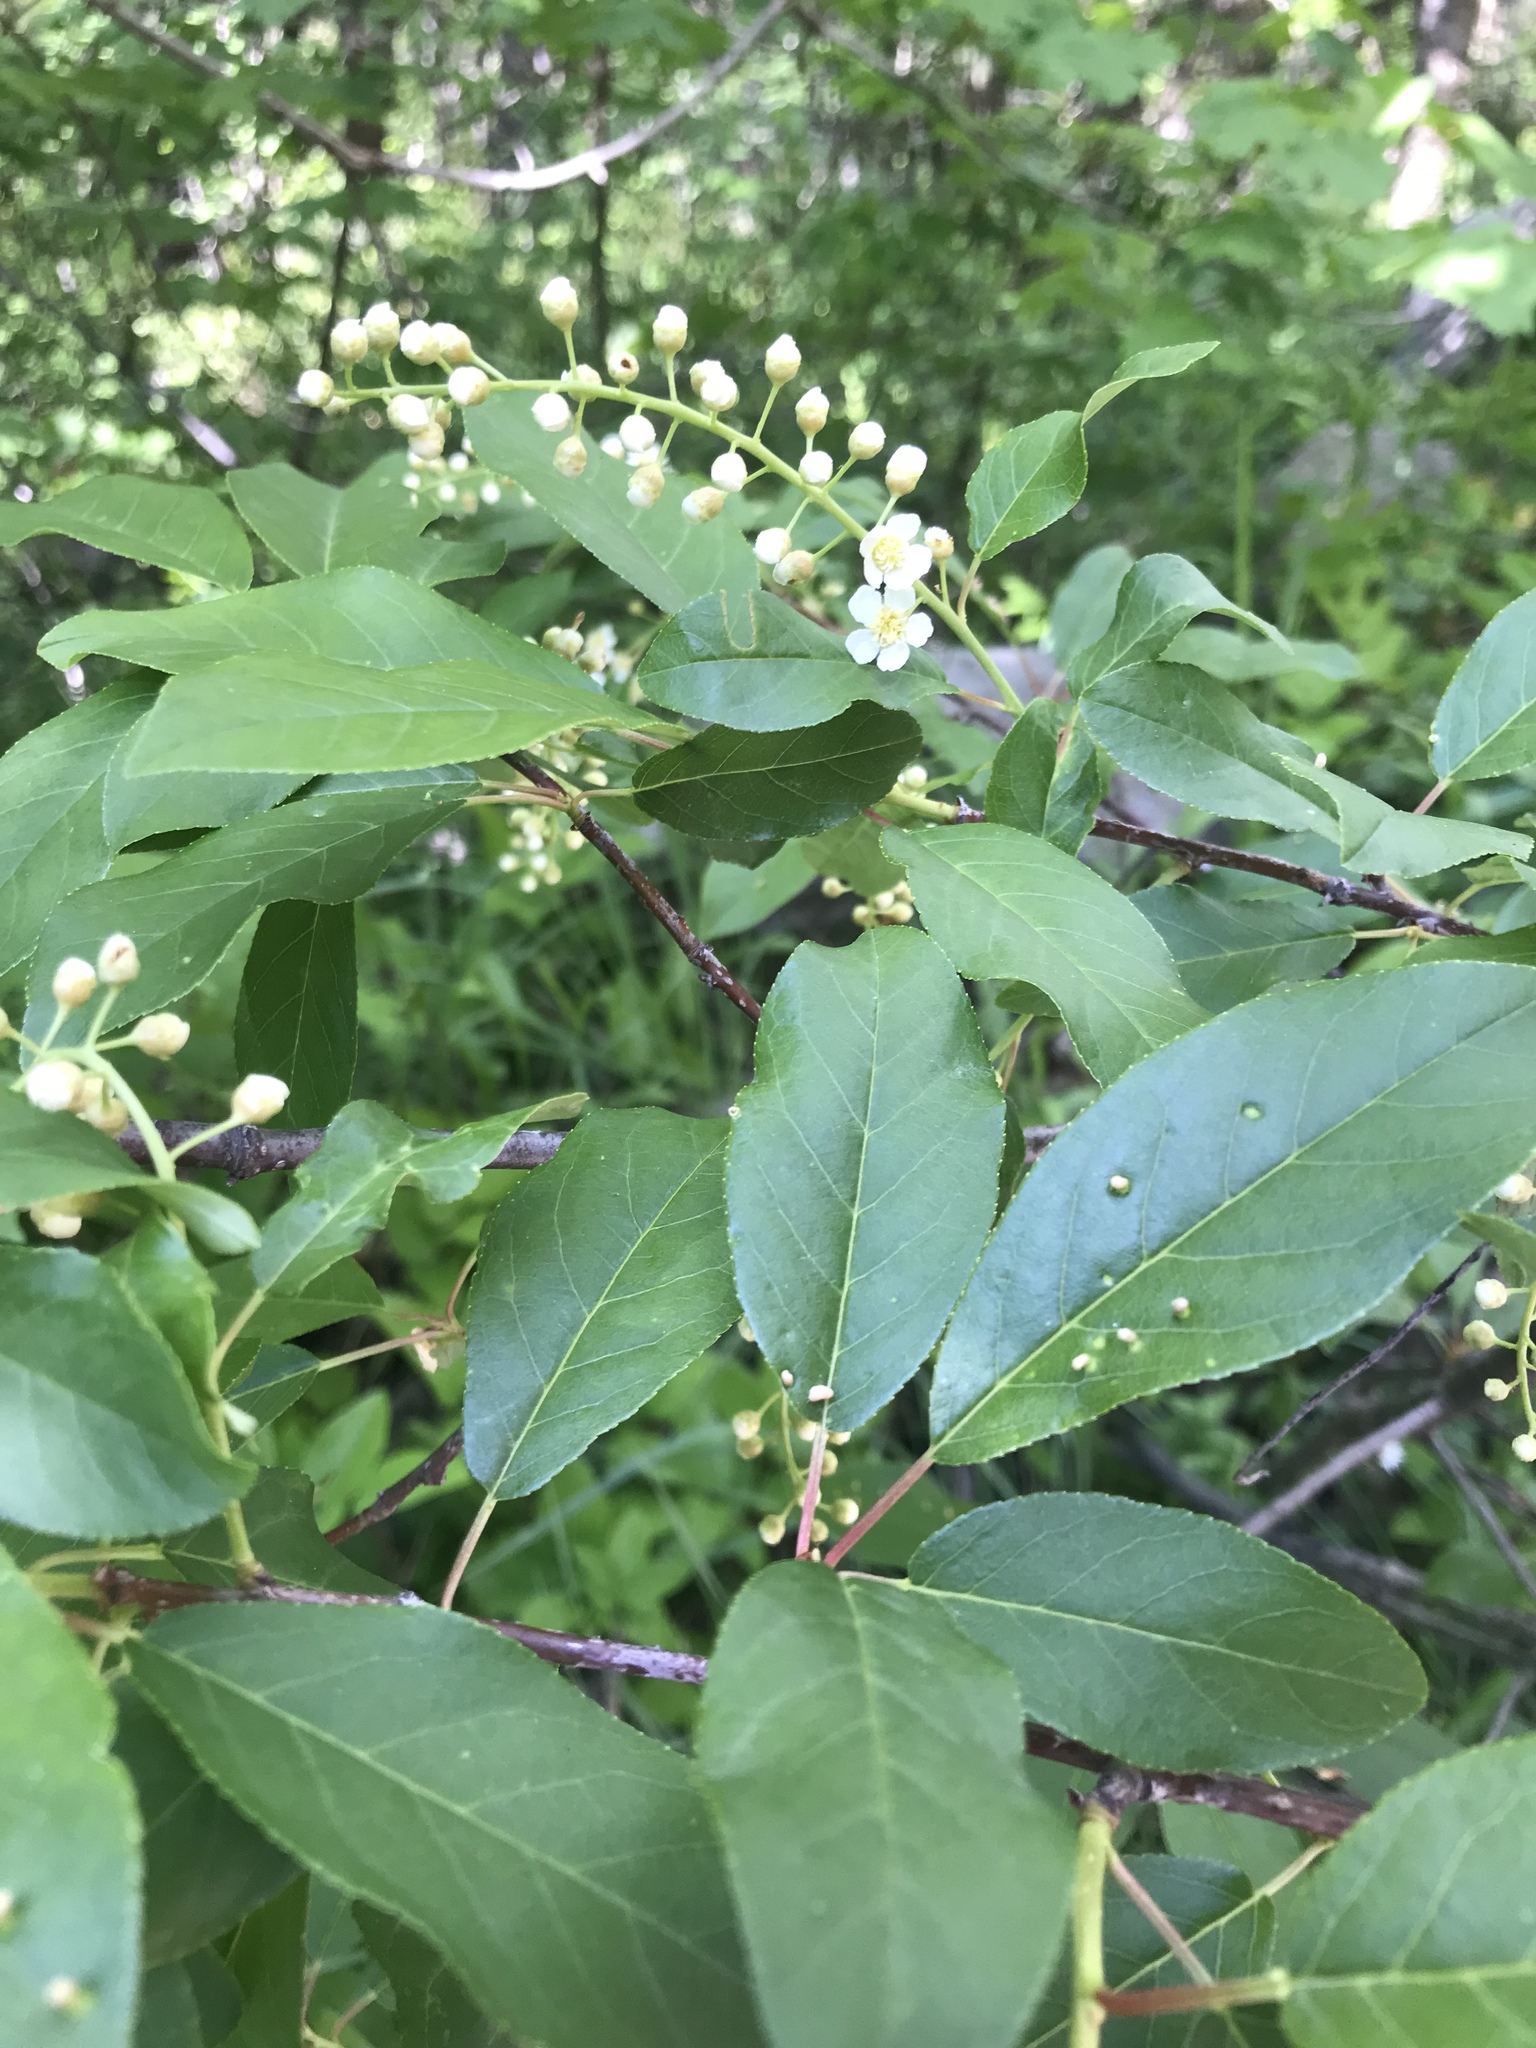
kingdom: Plantae
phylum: Tracheophyta
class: Magnoliopsida
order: Rosales
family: Rosaceae
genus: Prunus
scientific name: Prunus virginiana
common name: Chokecherry
